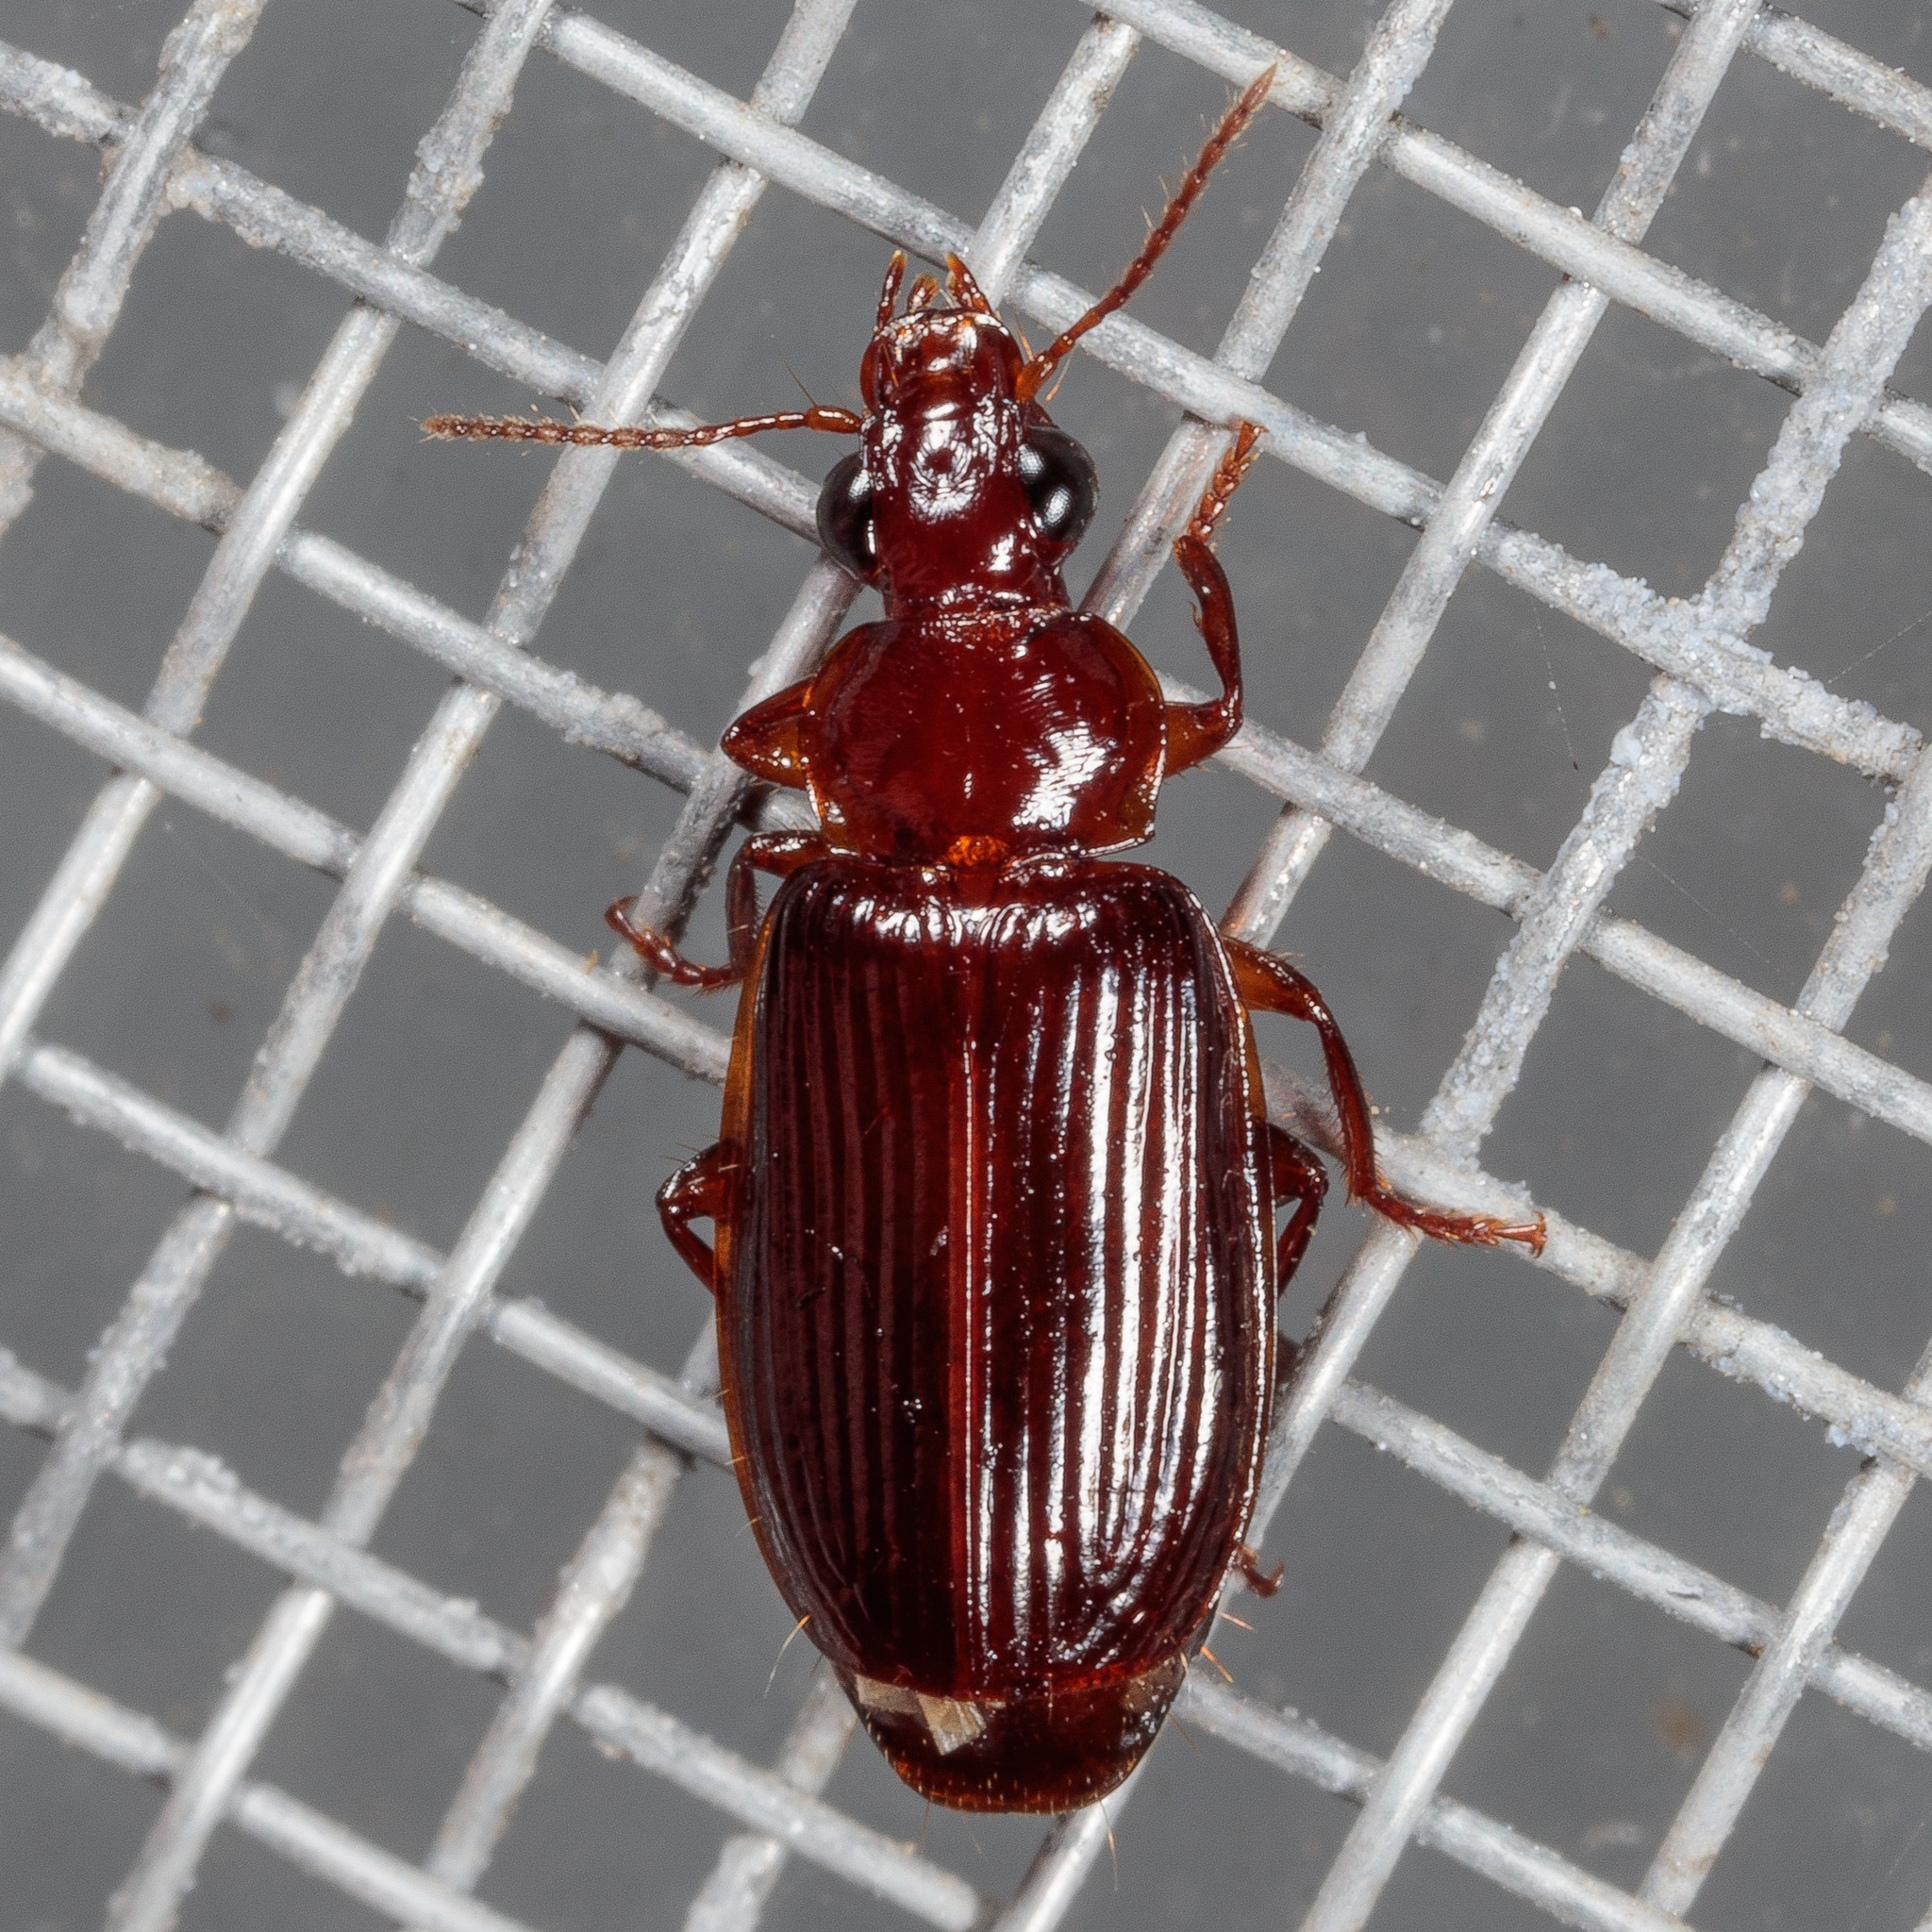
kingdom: Animalia
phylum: Arthropoda
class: Insecta
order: Coleoptera
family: Carabidae
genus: Plochionus
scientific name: Plochionus timidus
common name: Timid harp ground beetle
